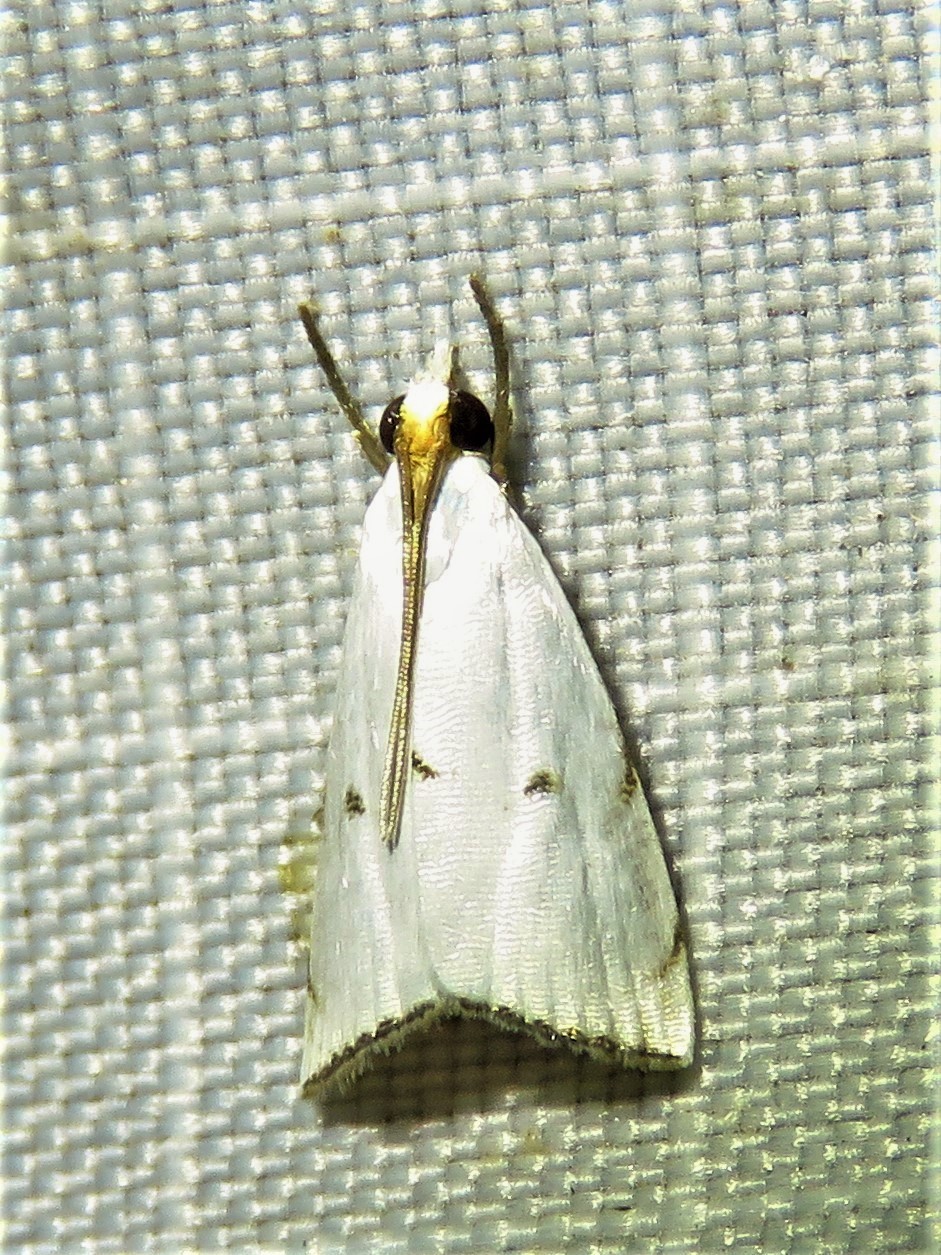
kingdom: Animalia
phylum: Arthropoda
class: Insecta
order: Lepidoptera
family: Crambidae
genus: Argyria
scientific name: Argyria pusillalis
